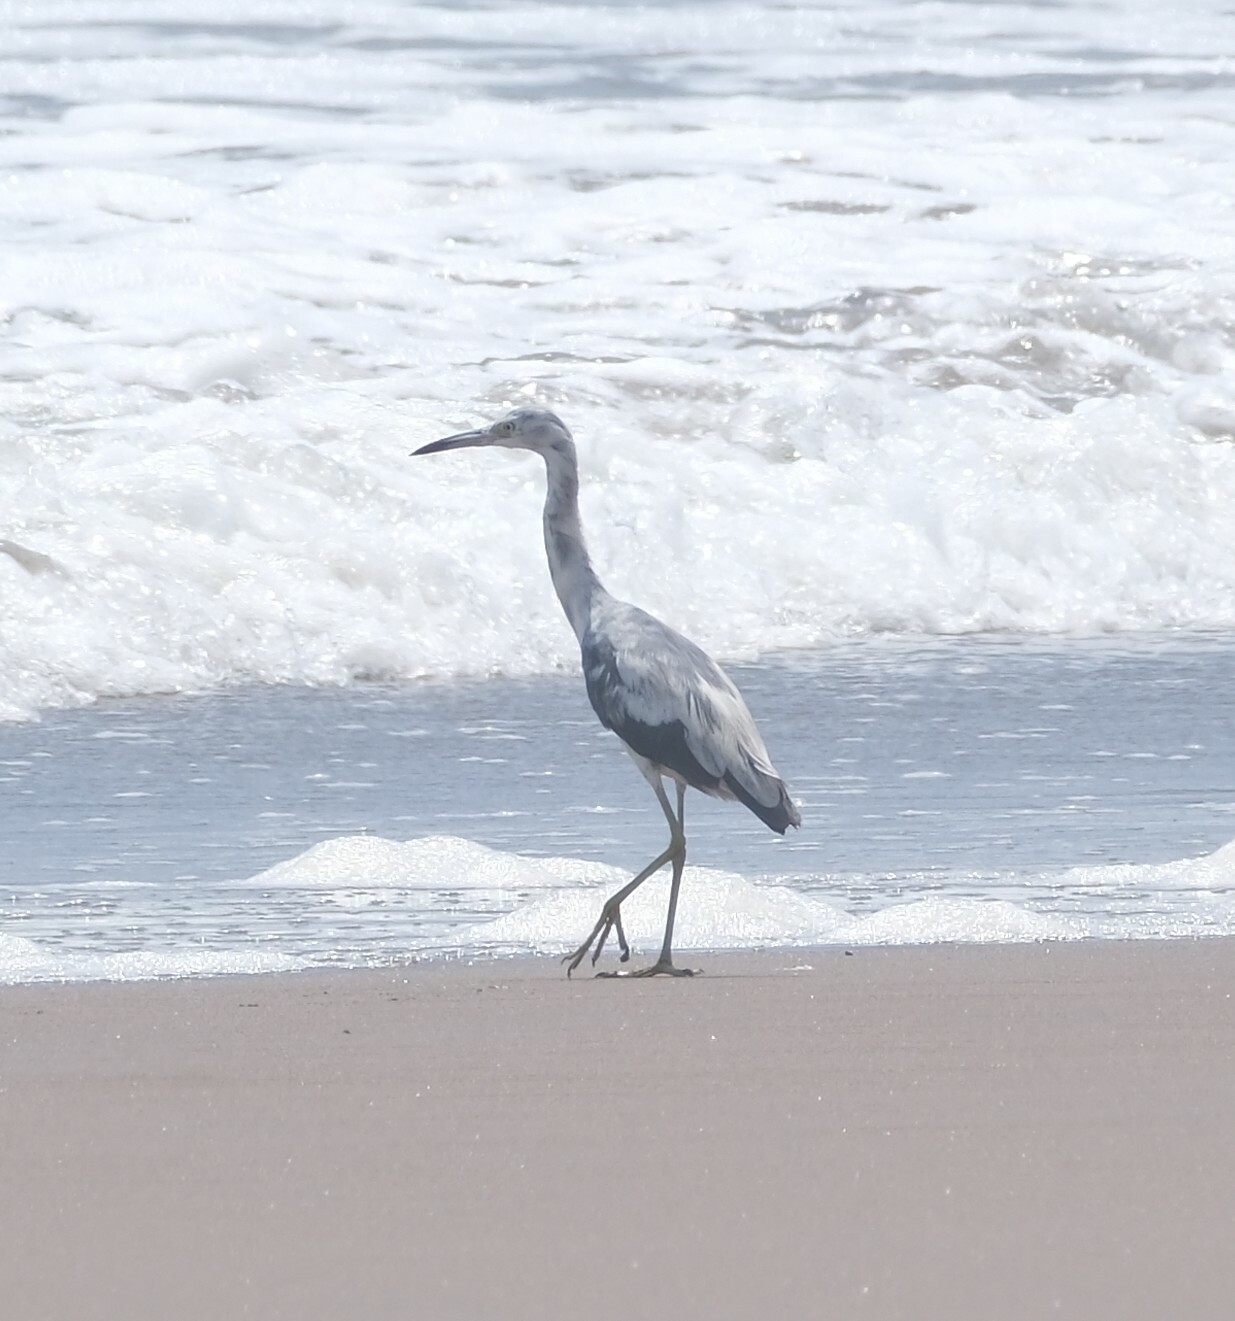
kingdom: Animalia
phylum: Chordata
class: Aves
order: Pelecaniformes
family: Ardeidae
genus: Egretta
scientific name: Egretta caerulea
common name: Little blue heron
